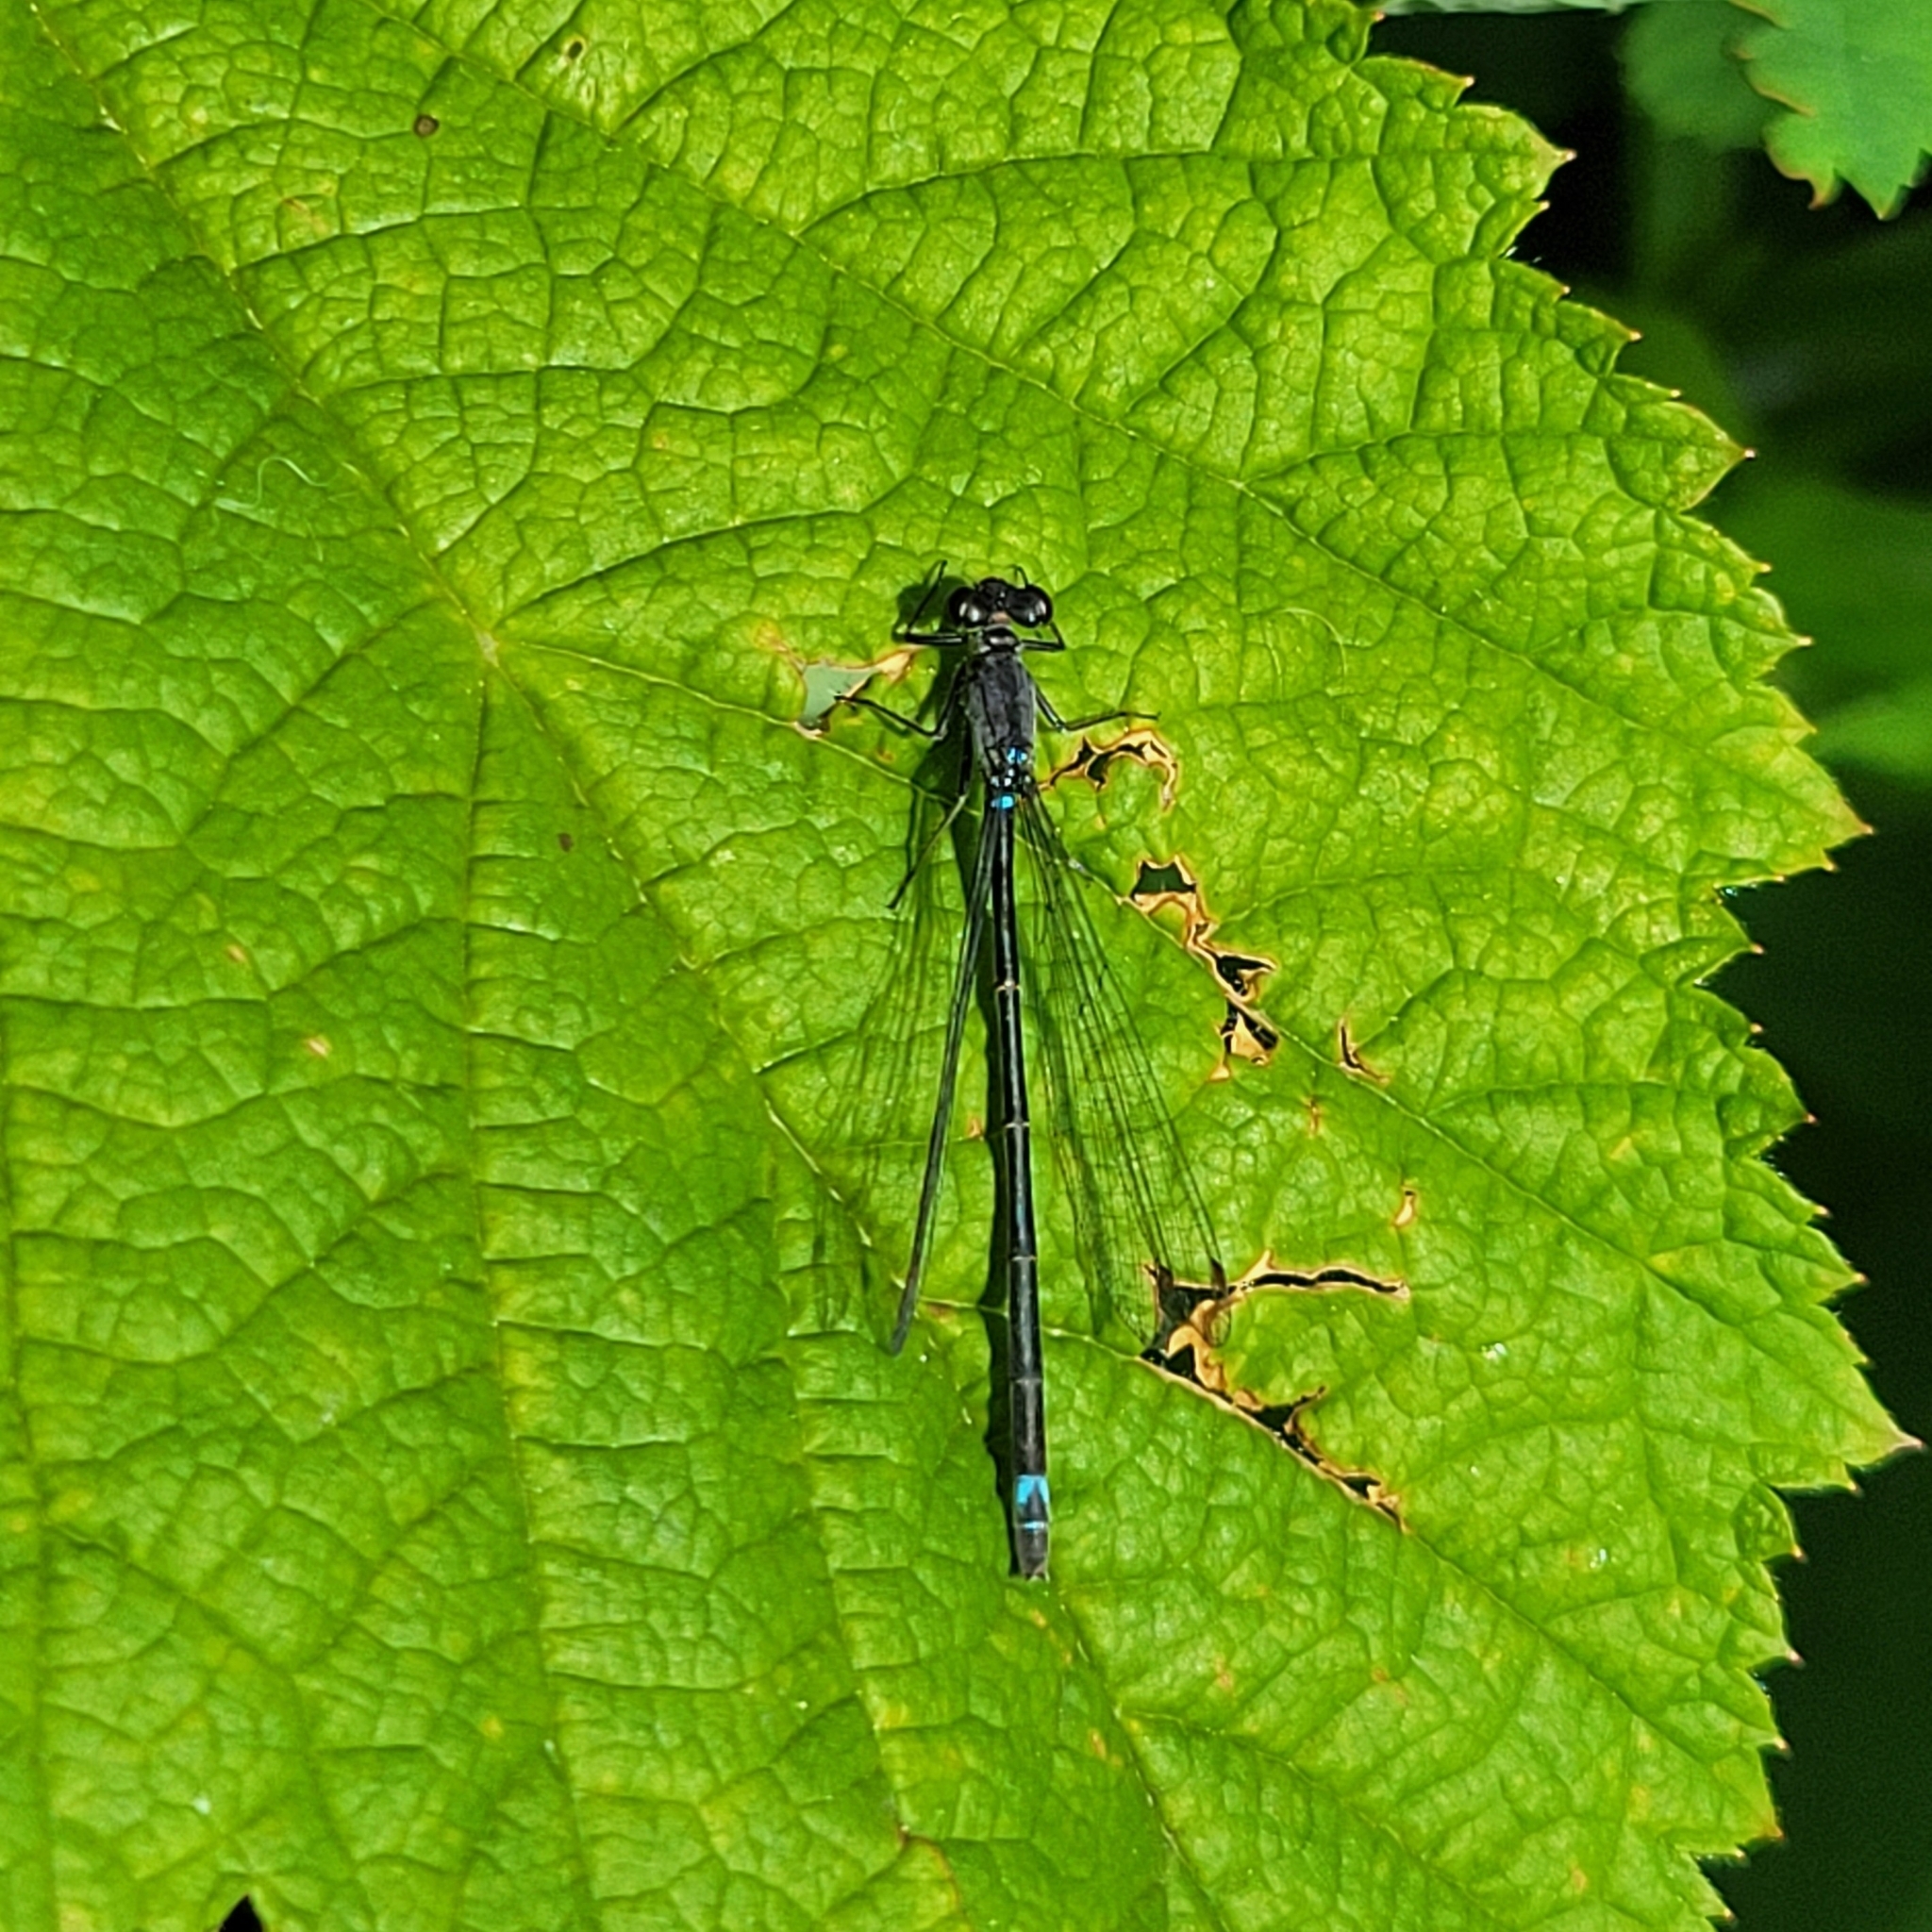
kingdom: Animalia
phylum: Arthropoda
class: Insecta
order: Odonata
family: Coenagrionidae
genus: Ischnura
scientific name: Ischnura cervula
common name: Pacific forktail
